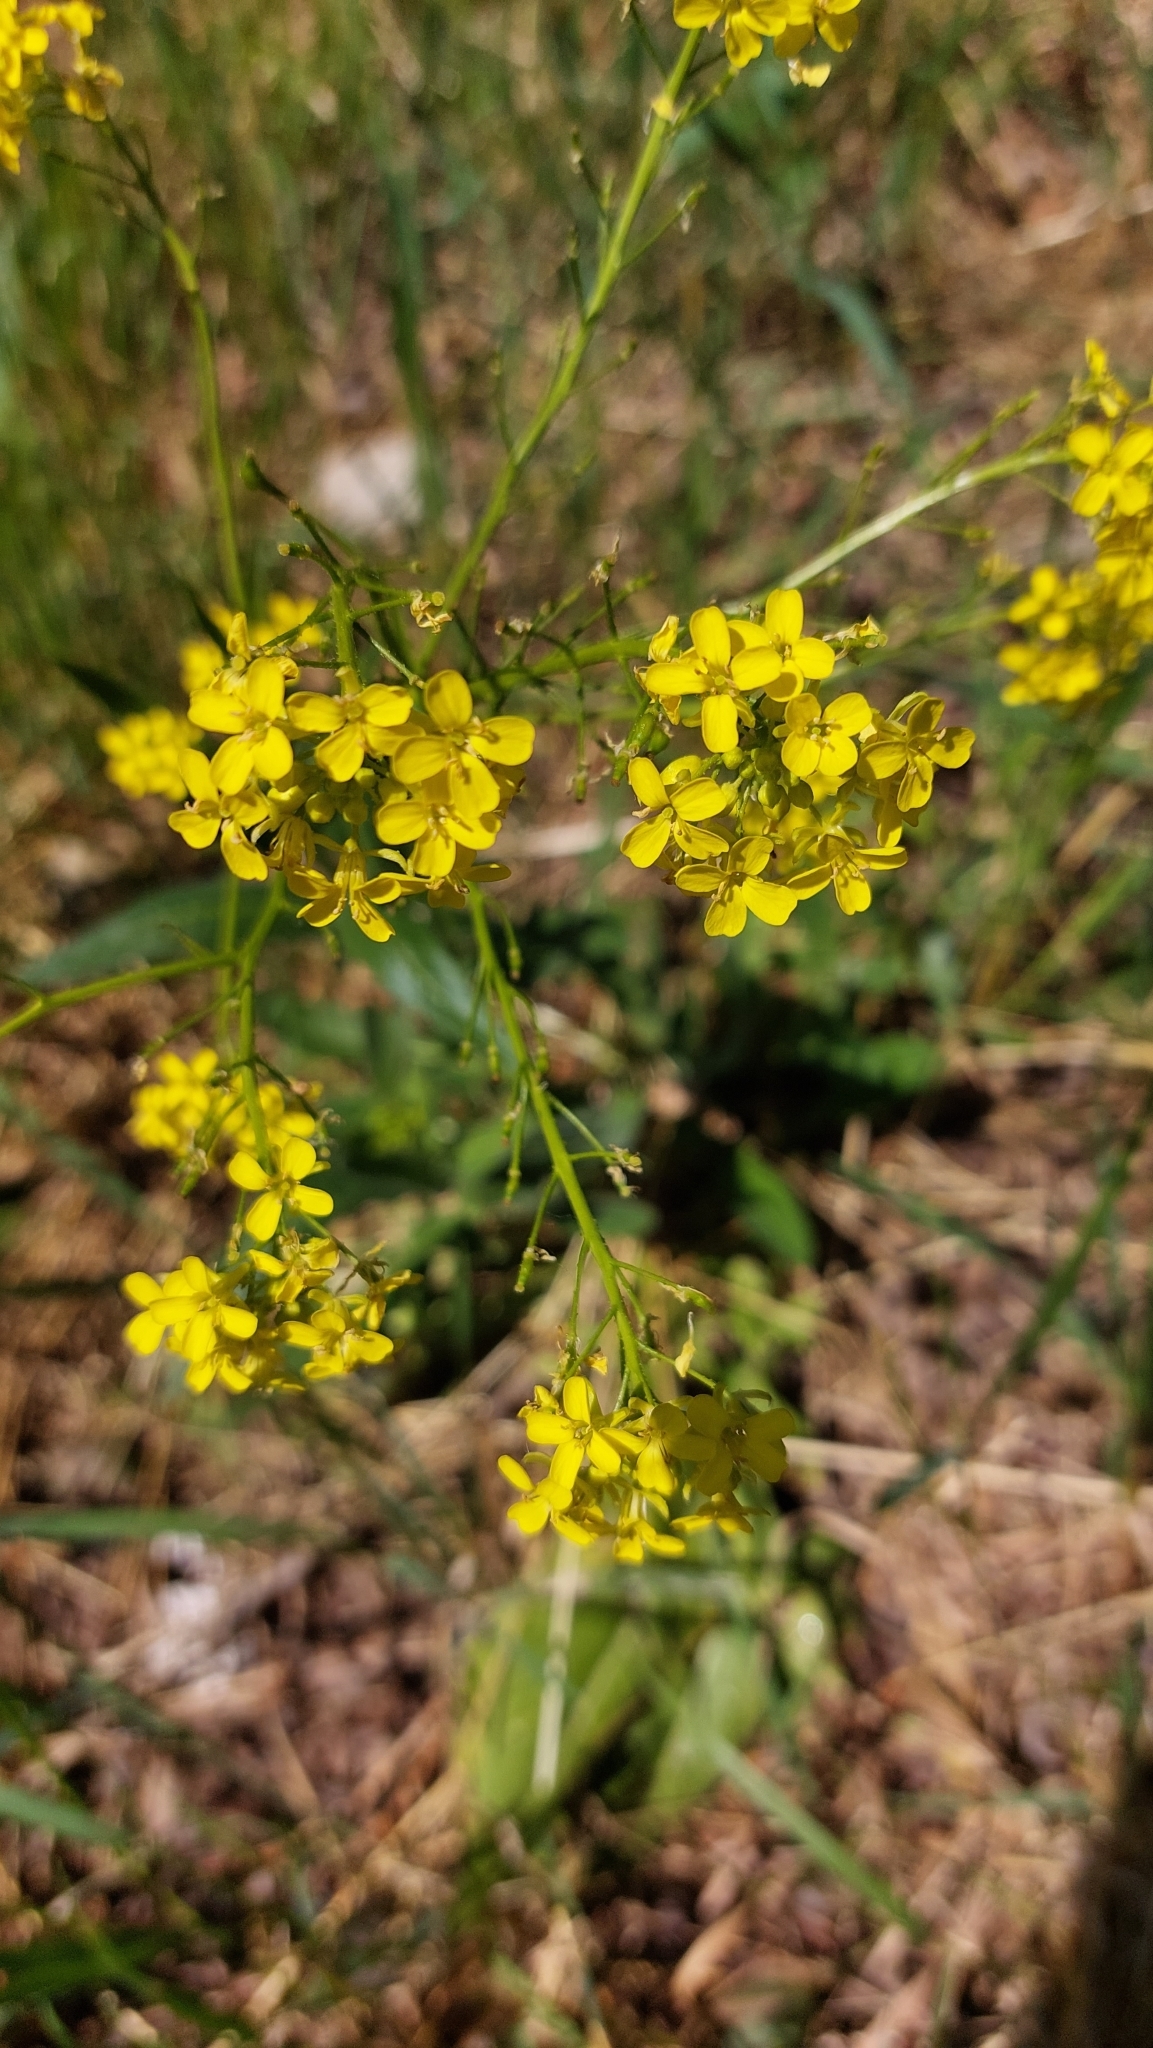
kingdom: Plantae
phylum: Tracheophyta
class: Magnoliopsida
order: Brassicales
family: Brassicaceae
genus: Bunias
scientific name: Bunias orientalis
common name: Warty-cabbage
